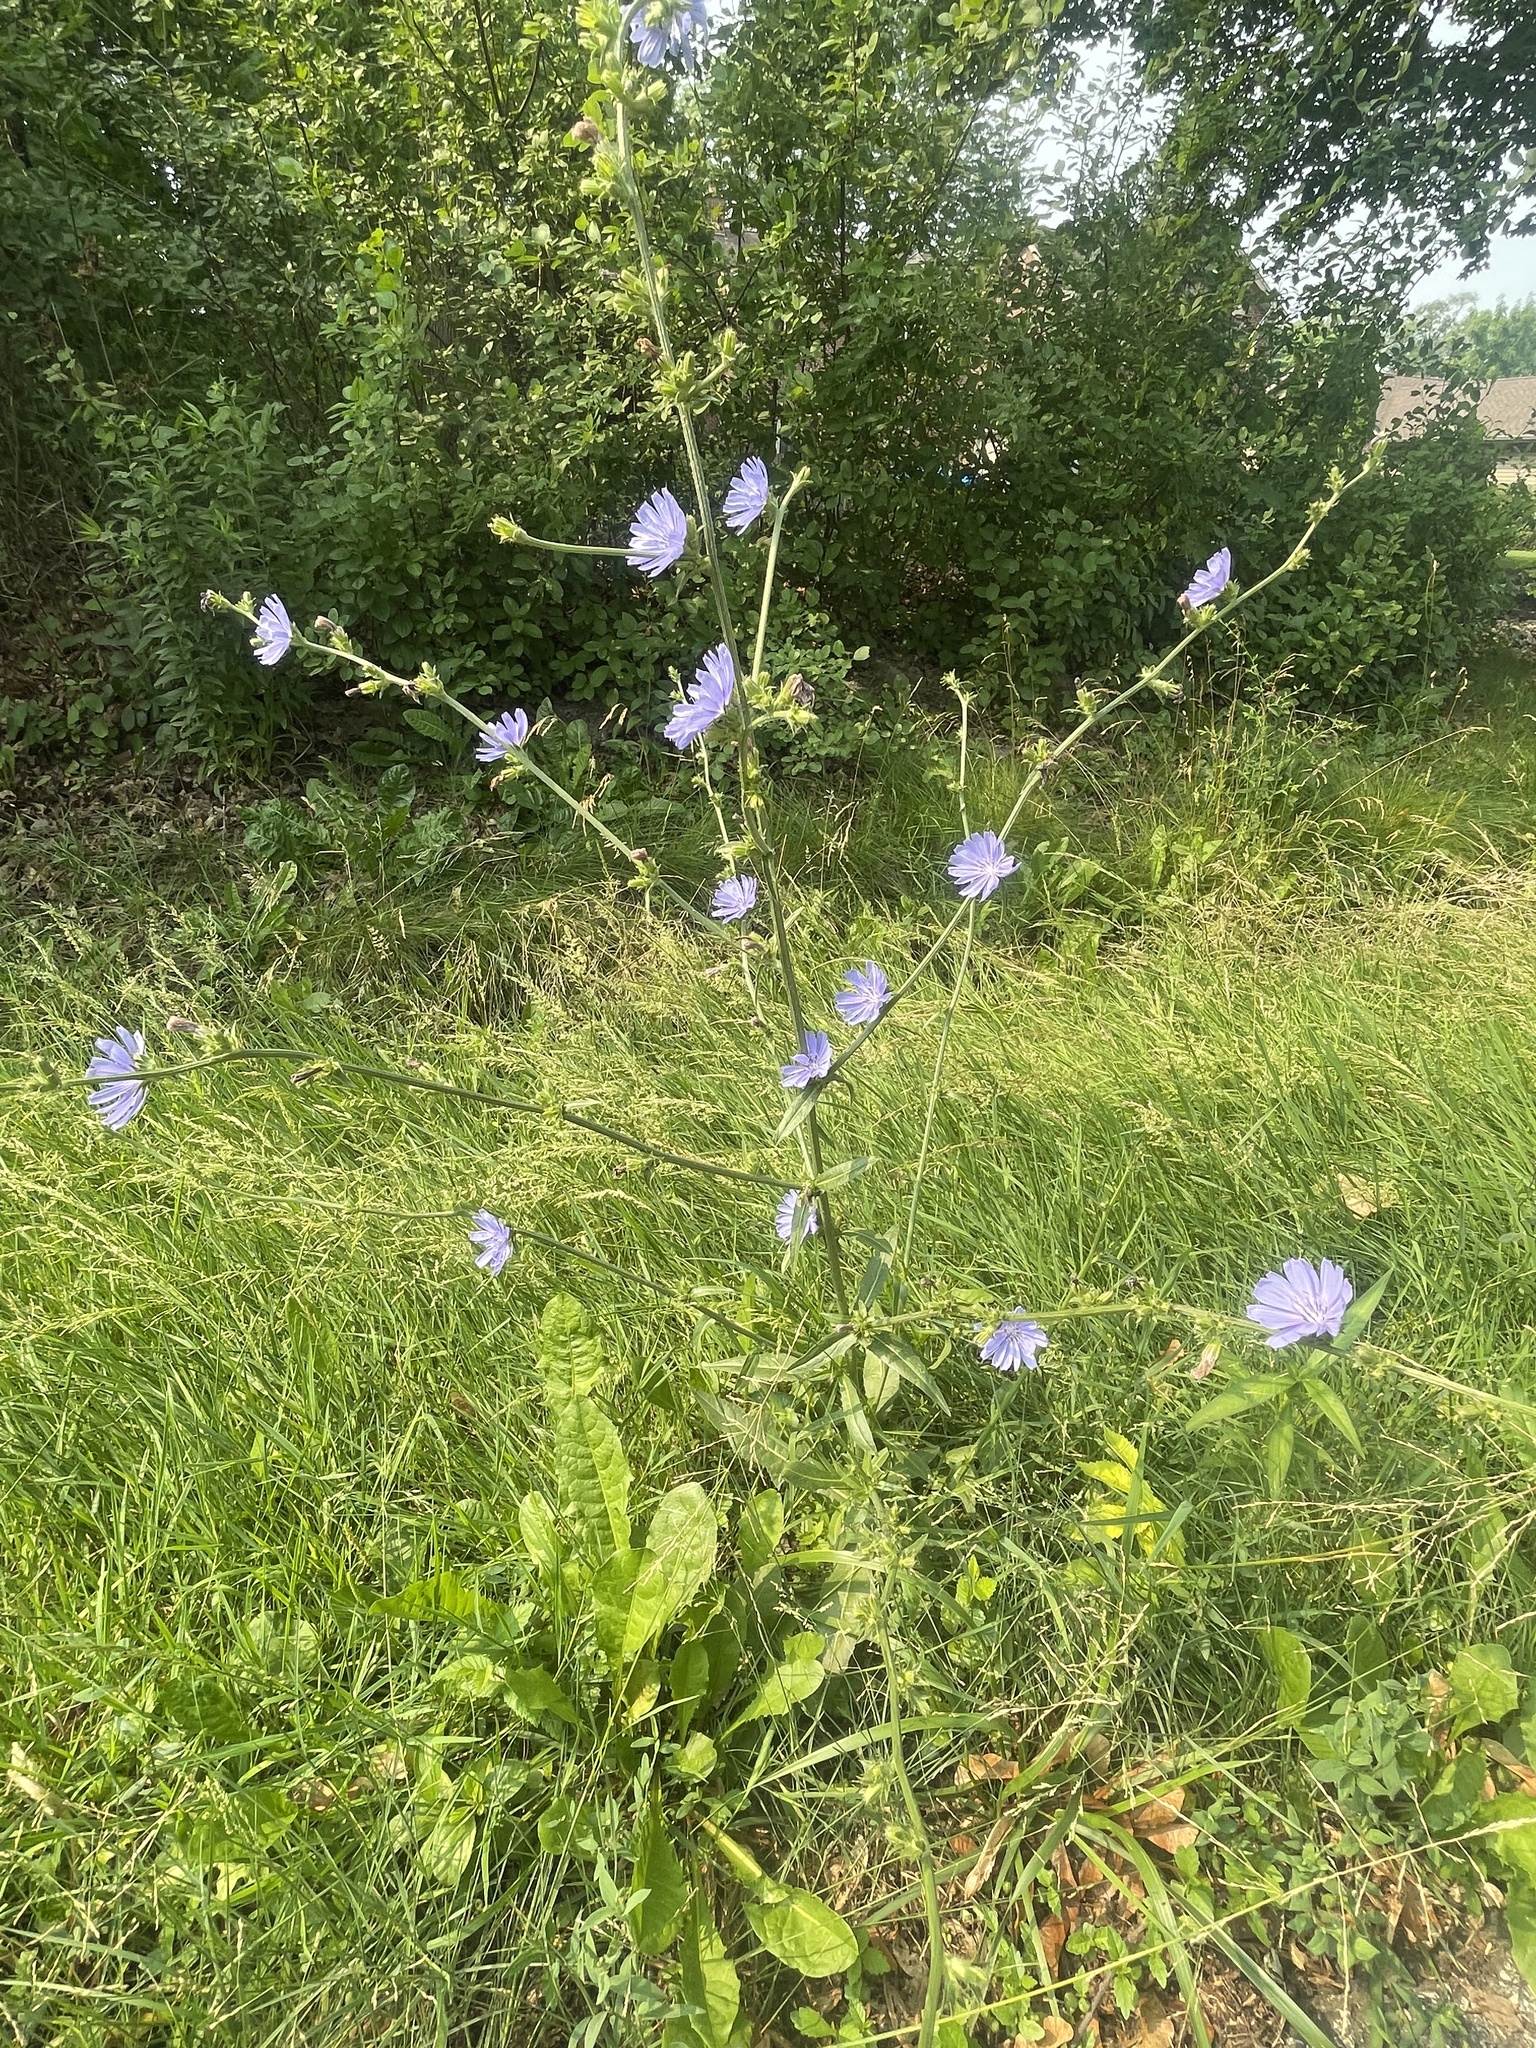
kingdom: Plantae
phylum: Tracheophyta
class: Magnoliopsida
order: Asterales
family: Asteraceae
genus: Cichorium
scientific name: Cichorium intybus
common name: Chicory
